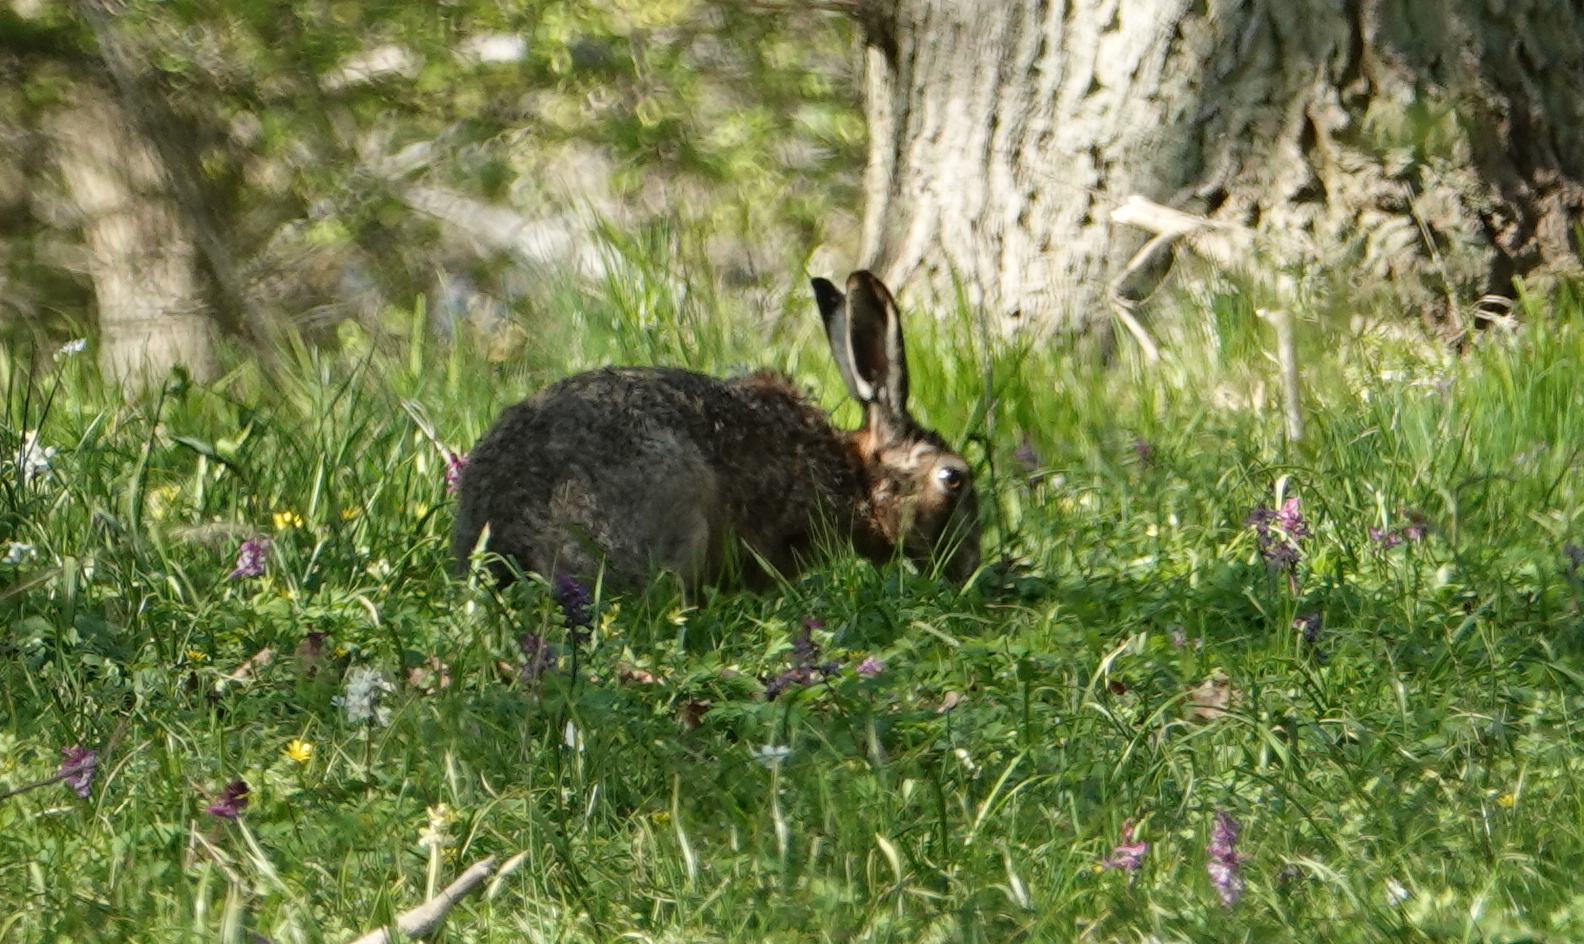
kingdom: Animalia
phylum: Chordata
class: Mammalia
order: Lagomorpha
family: Leporidae
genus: Lepus
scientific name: Lepus europaeus
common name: European hare
